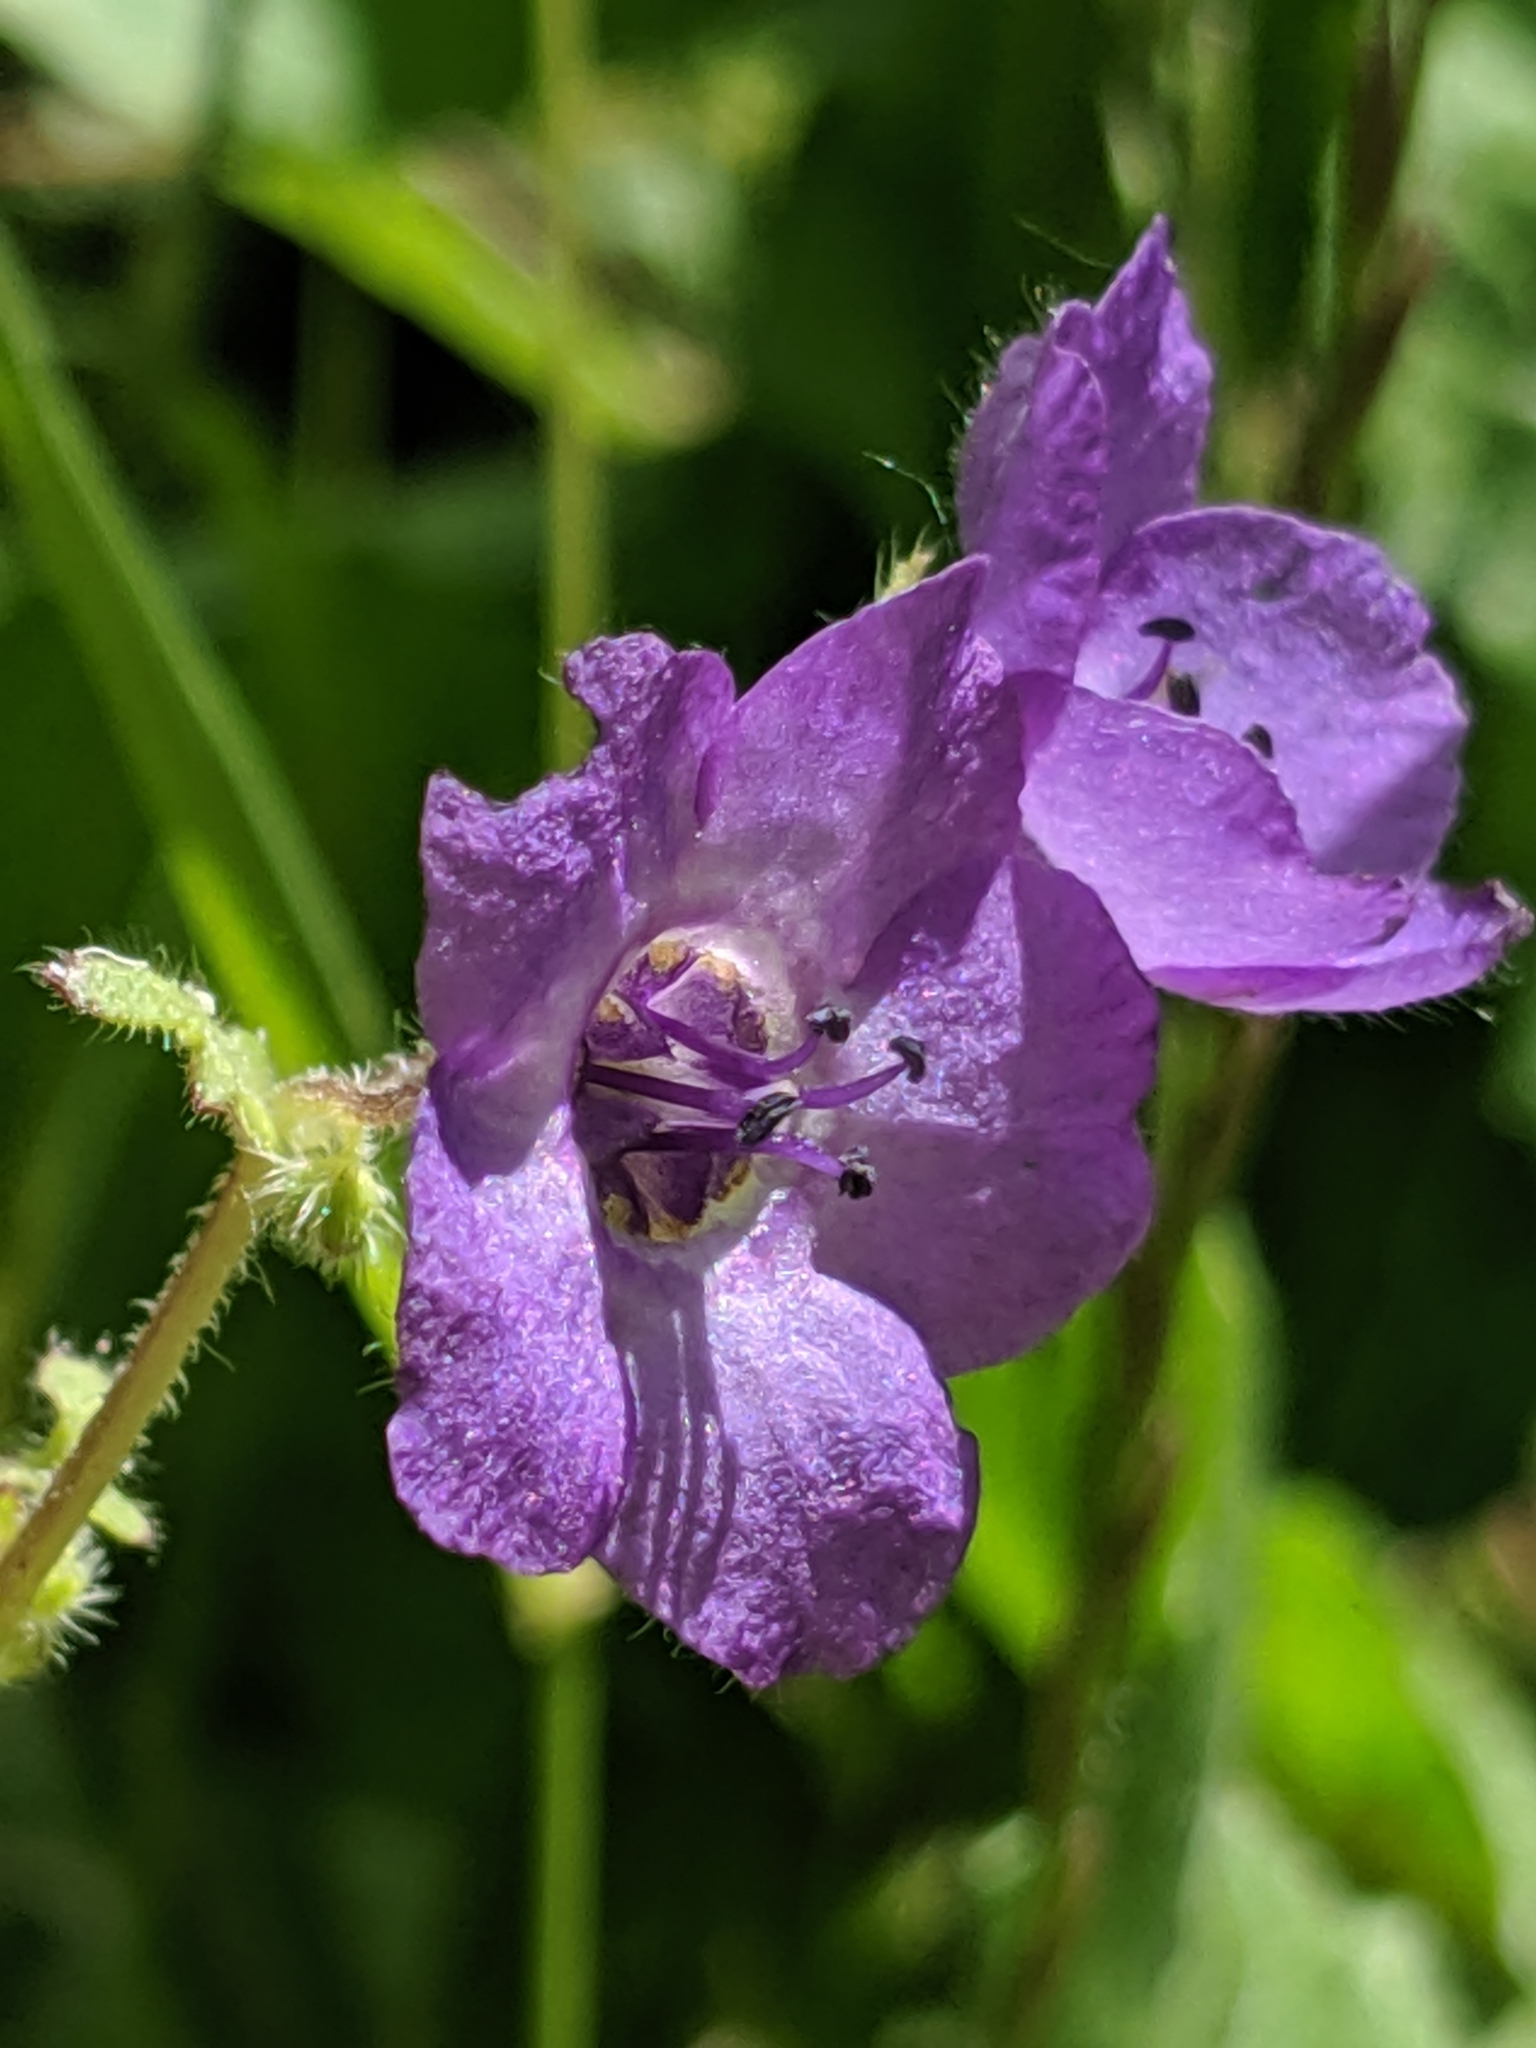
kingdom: Plantae
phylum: Tracheophyta
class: Magnoliopsida
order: Boraginales
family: Hydrophyllaceae
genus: Pholistoma
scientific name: Pholistoma auritum
